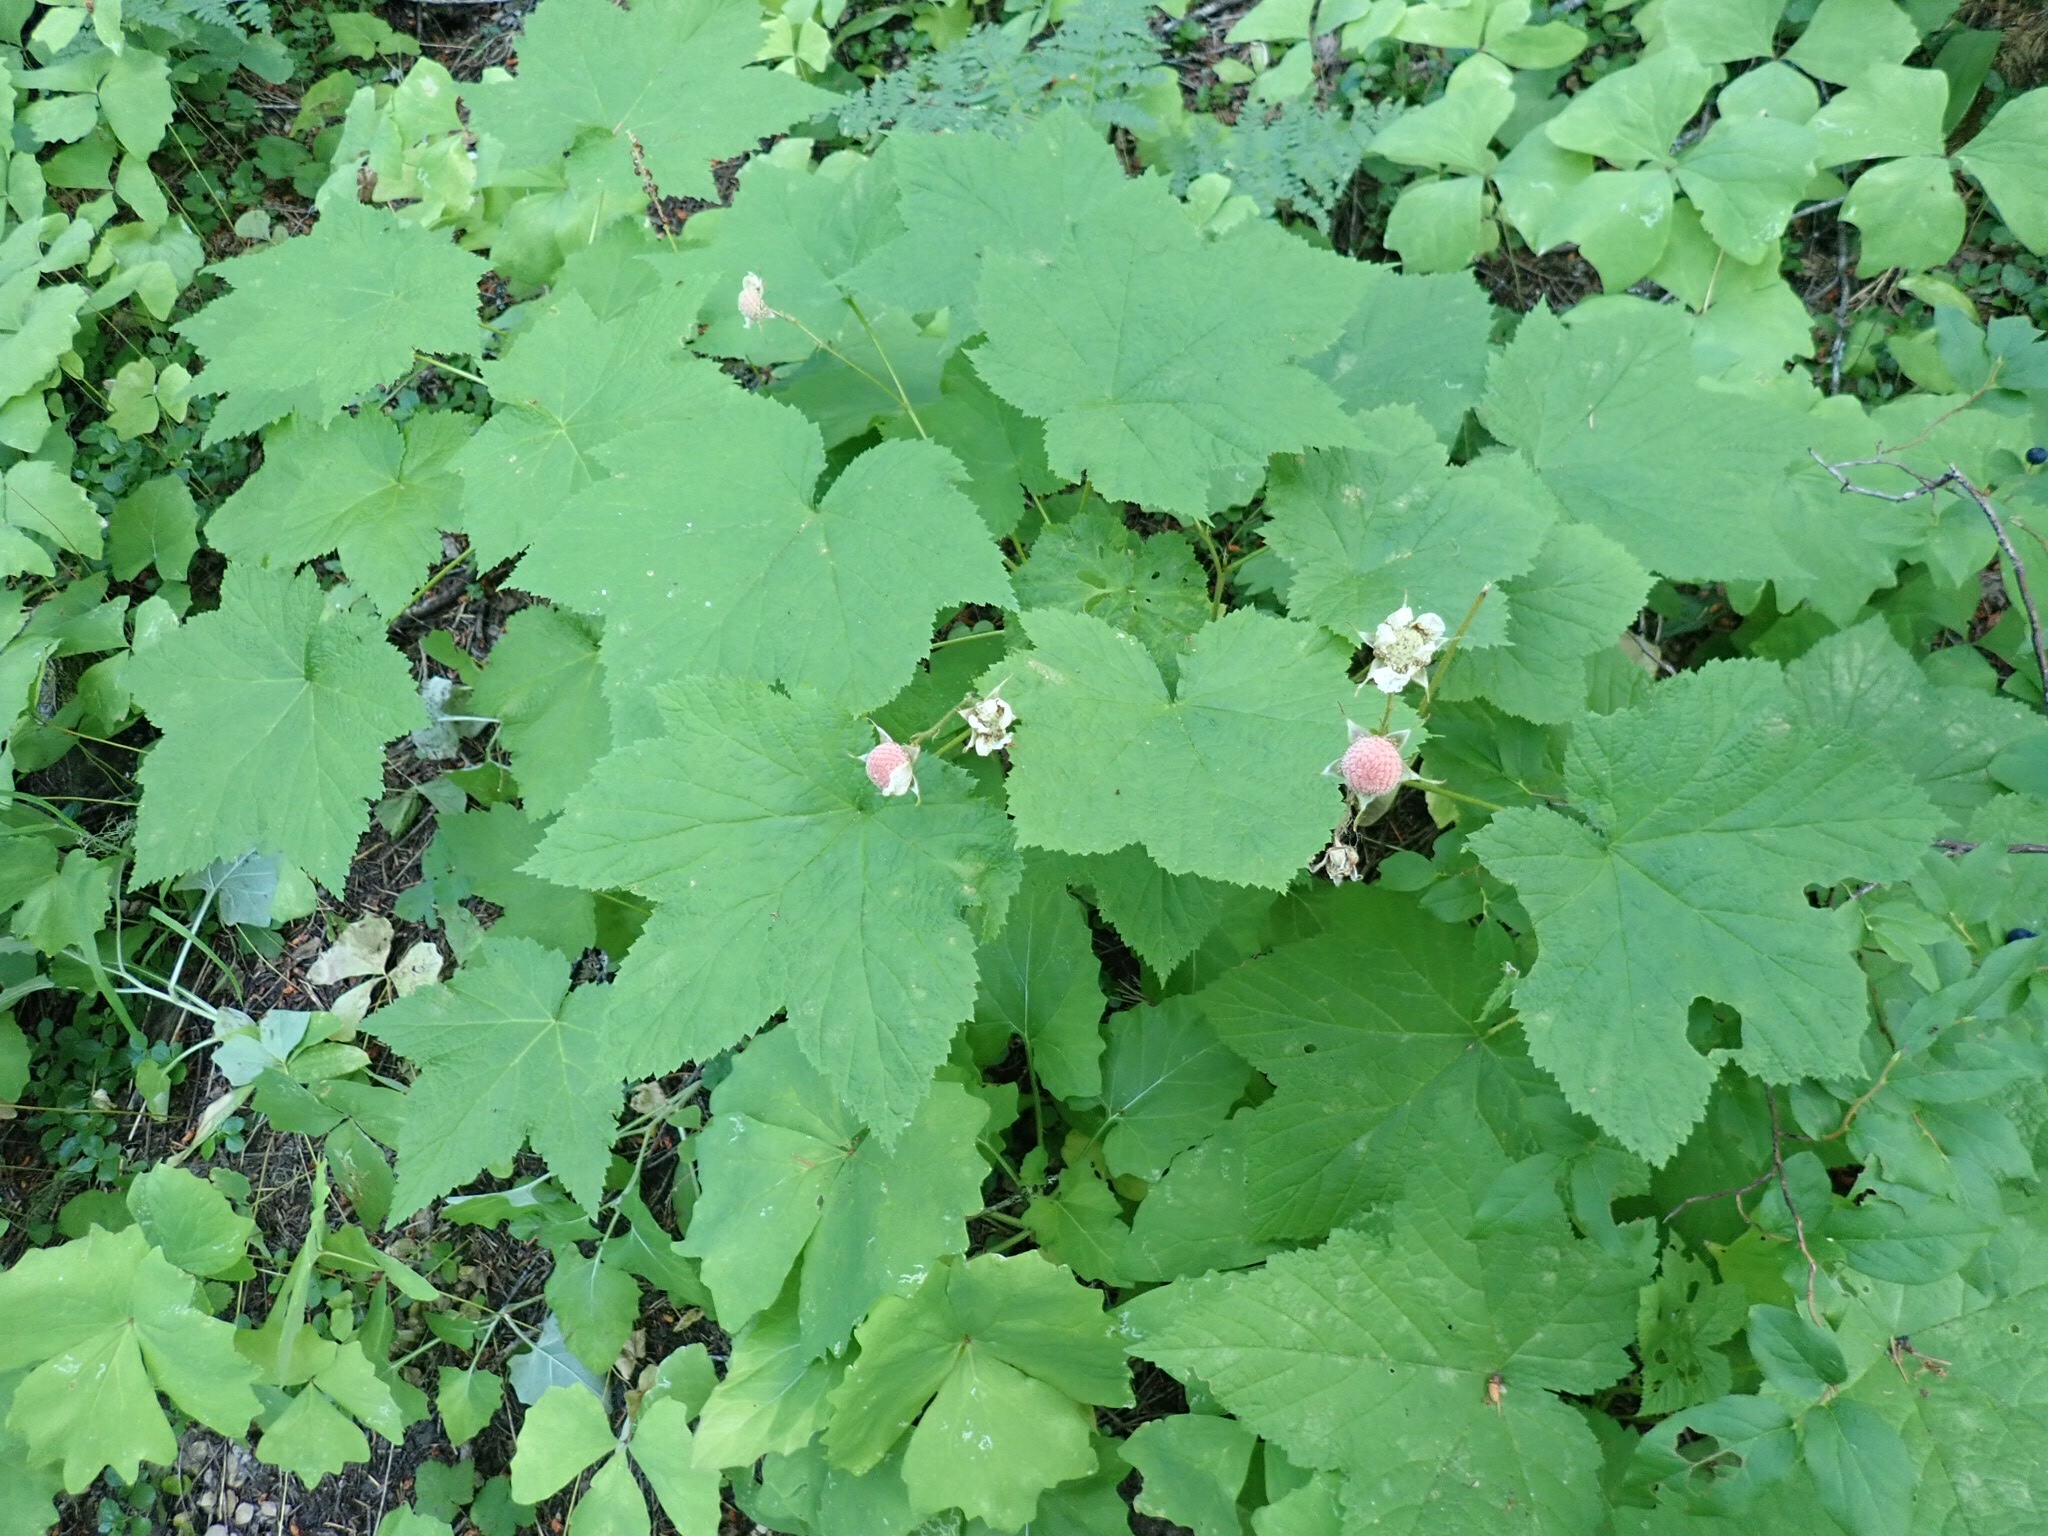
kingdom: Plantae
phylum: Tracheophyta
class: Magnoliopsida
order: Rosales
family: Rosaceae
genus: Rubus
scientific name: Rubus parviflorus
